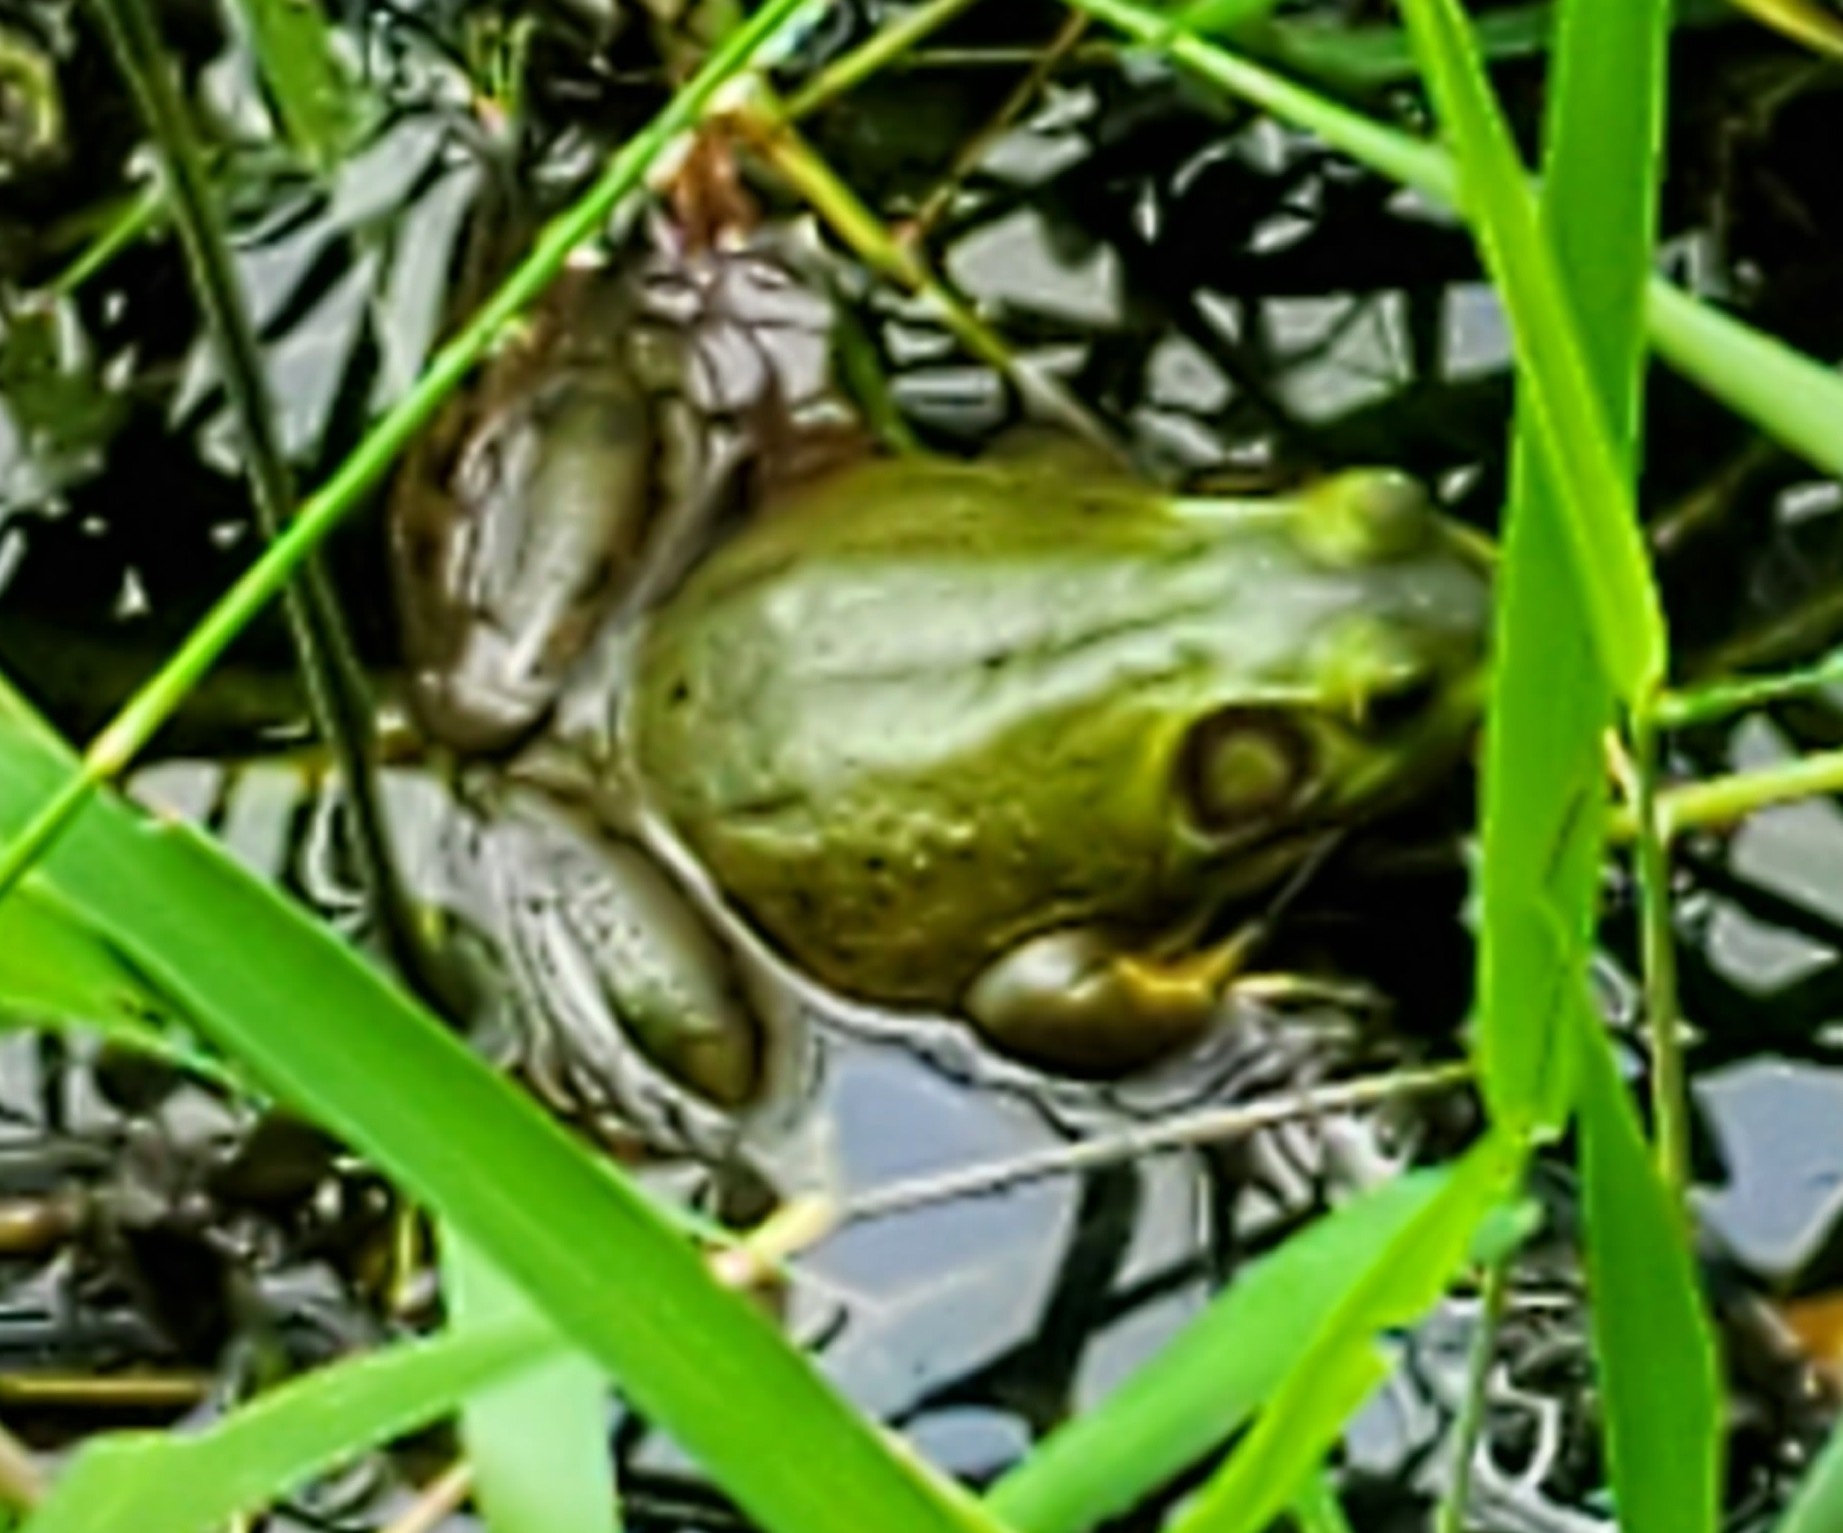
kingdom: Animalia
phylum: Chordata
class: Amphibia
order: Anura
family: Ranidae
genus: Lithobates
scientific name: Lithobates grylio
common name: Pig frog
